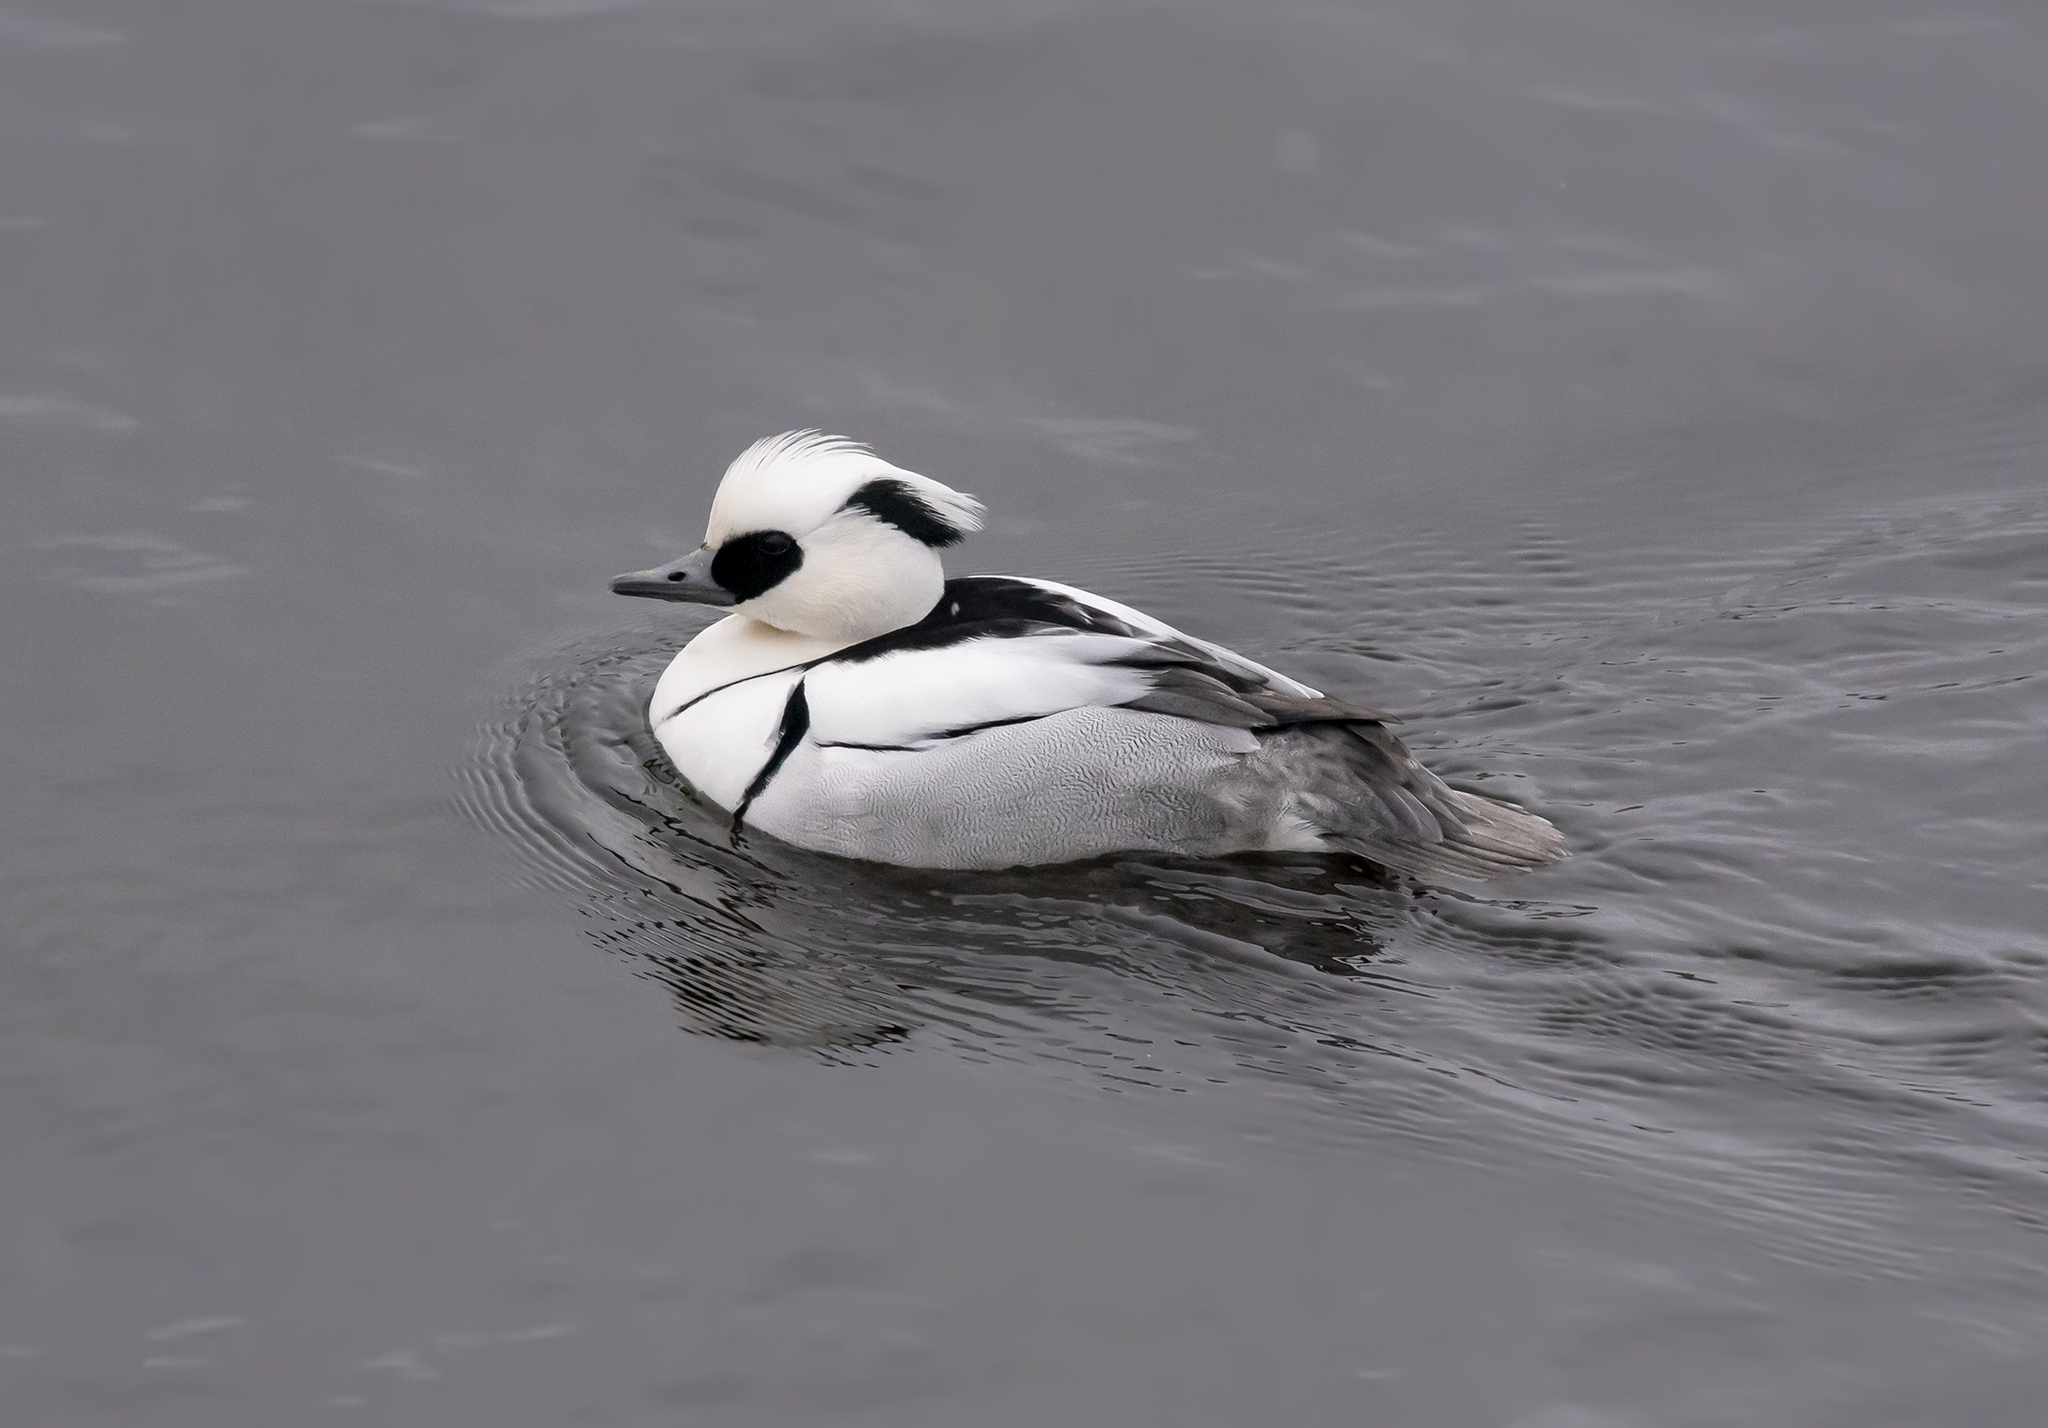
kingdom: Animalia
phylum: Chordata
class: Aves
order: Anseriformes
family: Anatidae
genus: Mergellus
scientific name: Mergellus albellus
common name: Smew
